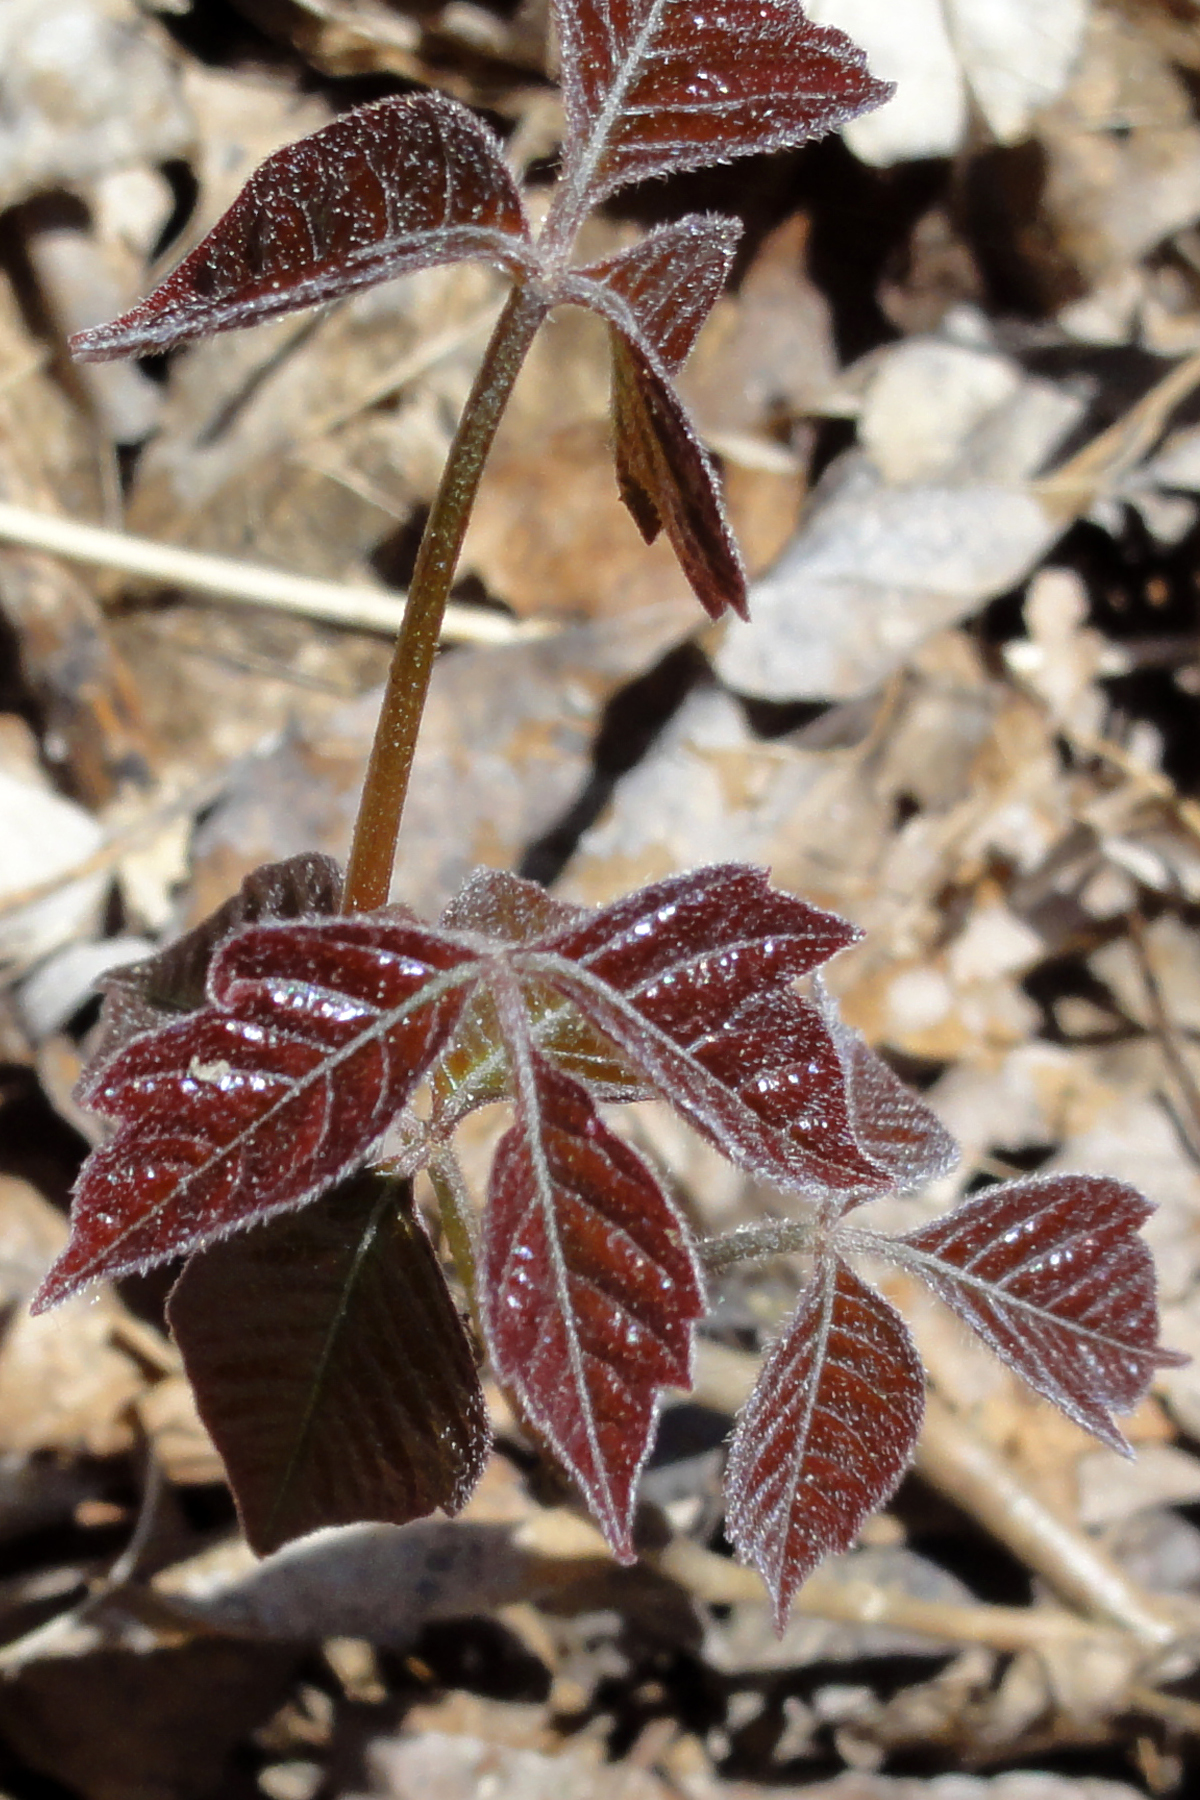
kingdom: Plantae
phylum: Tracheophyta
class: Magnoliopsida
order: Sapindales
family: Anacardiaceae
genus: Toxicodendron
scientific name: Toxicodendron radicans
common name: Poison ivy
